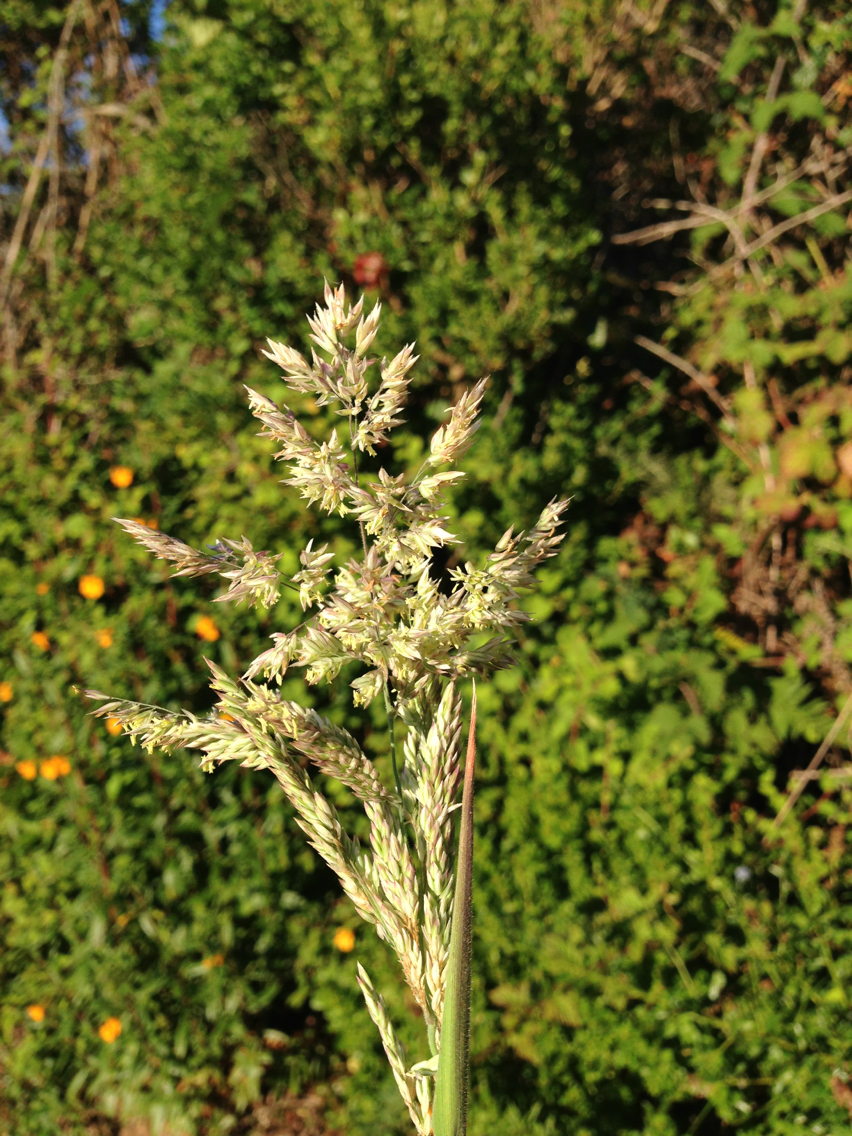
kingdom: Plantae
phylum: Tracheophyta
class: Liliopsida
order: Poales
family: Poaceae
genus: Holcus
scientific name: Holcus lanatus
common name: Yorkshire-fog
